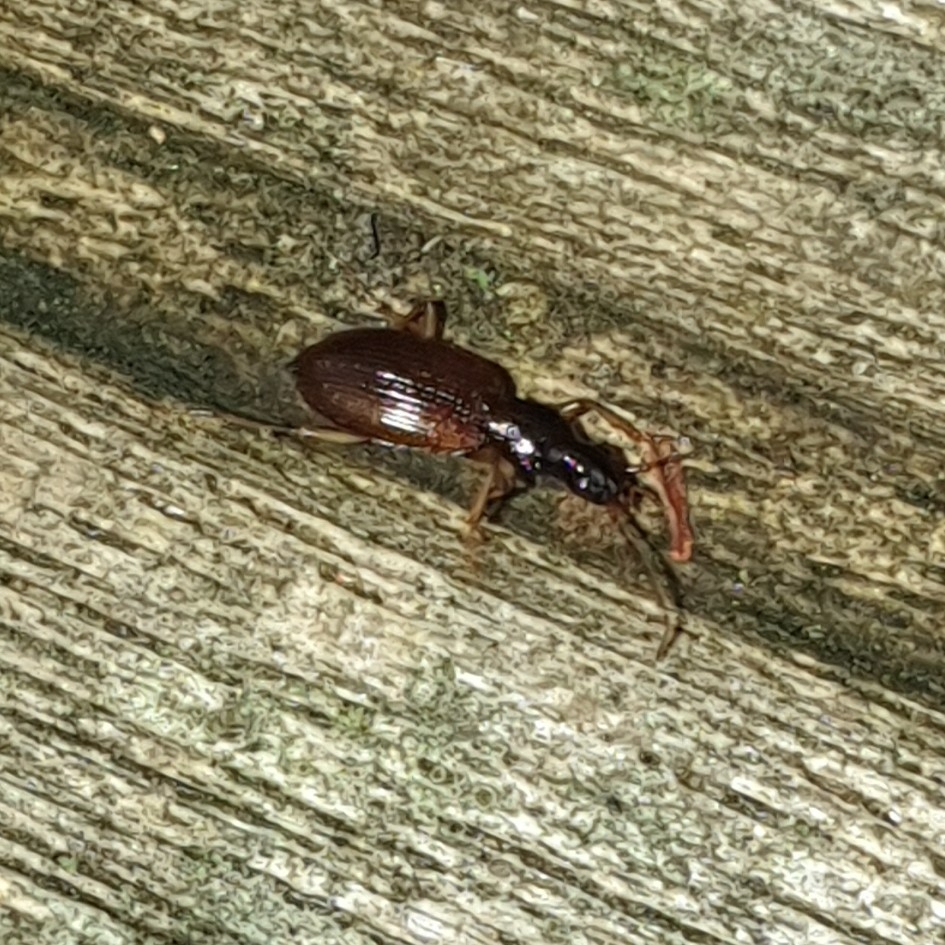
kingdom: Animalia
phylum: Arthropoda
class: Insecta
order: Coleoptera
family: Carabidae
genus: Oxypselaphus
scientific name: Oxypselaphus obscurus
